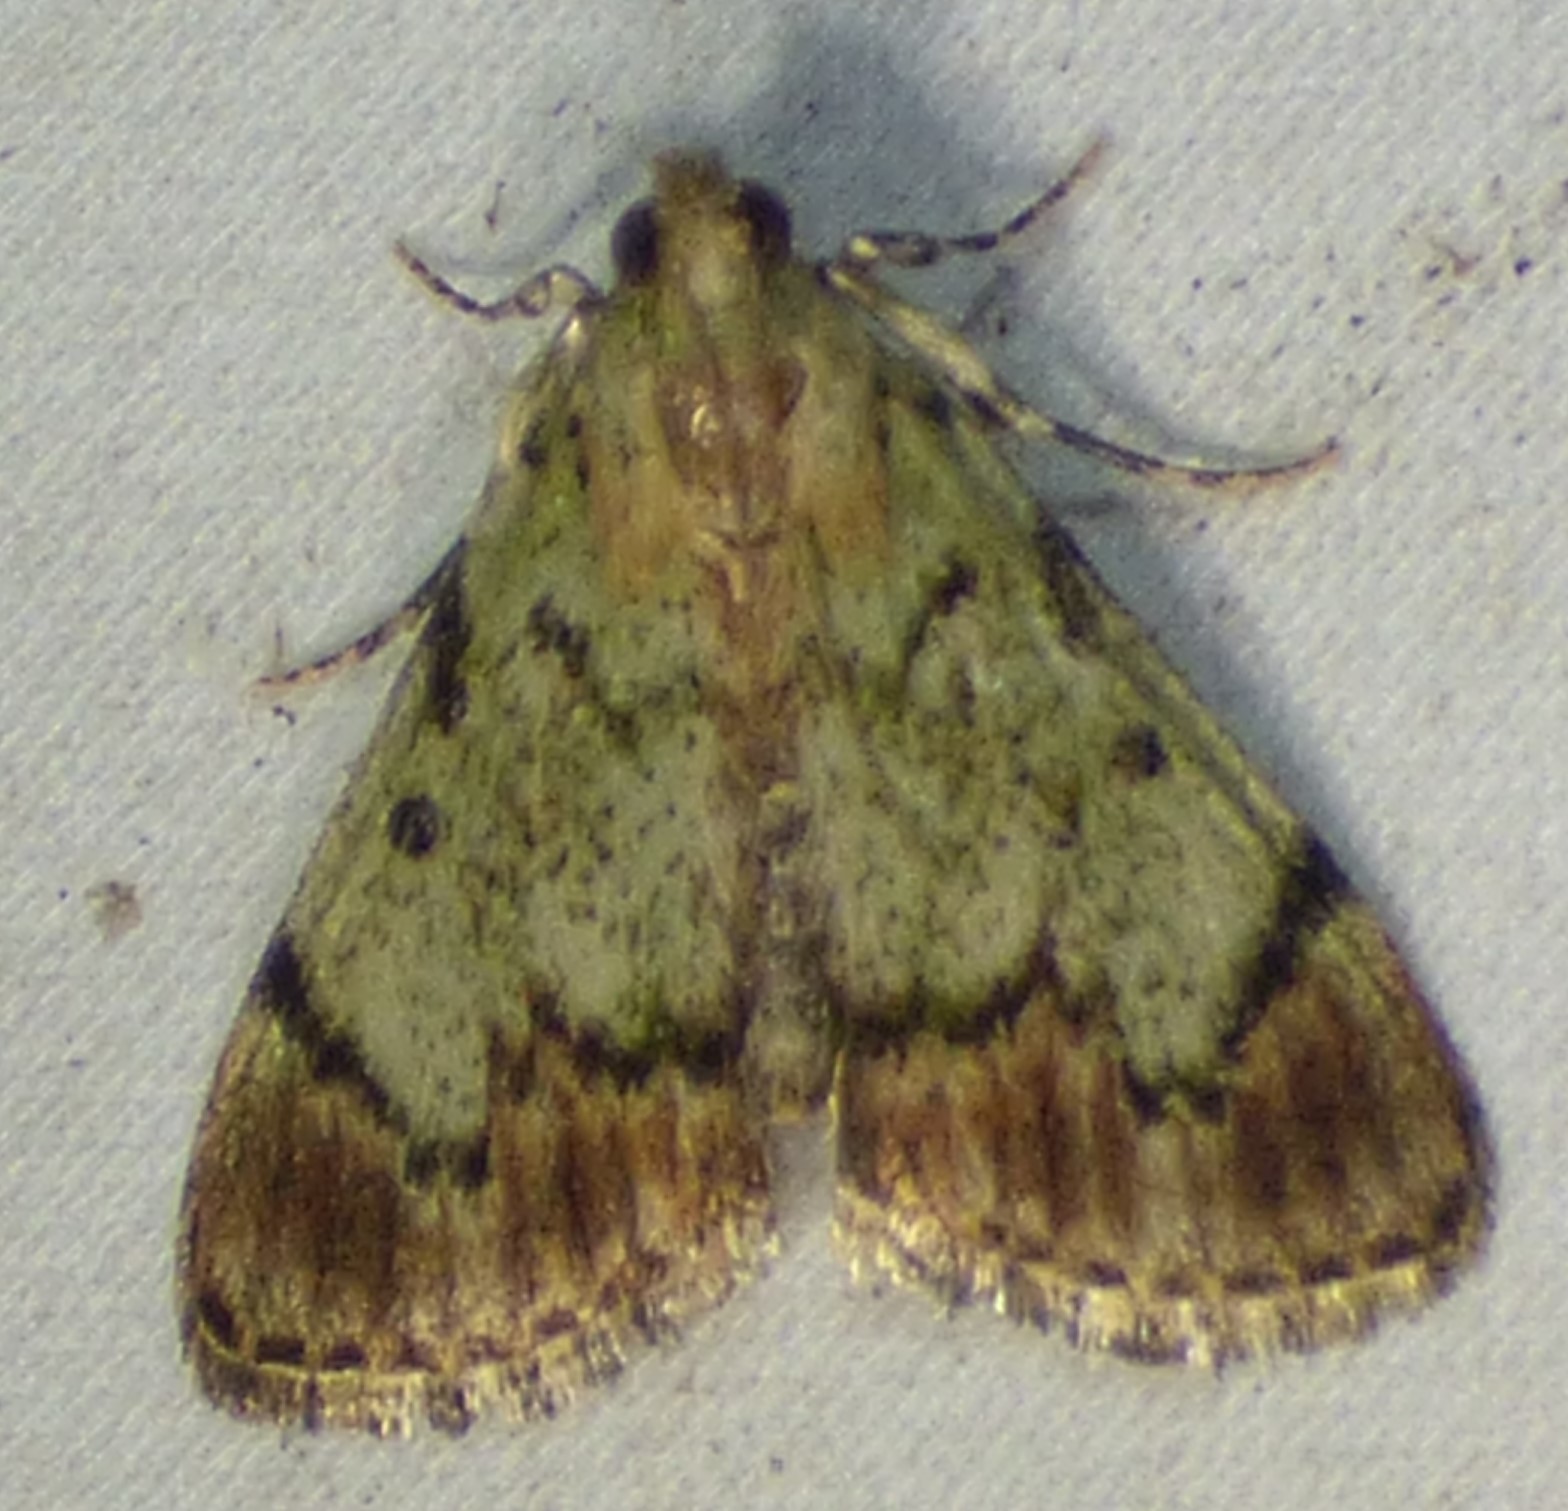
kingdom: Animalia
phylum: Arthropoda
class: Insecta
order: Lepidoptera
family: Pyralidae
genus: Epipaschia
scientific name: Epipaschia superatalis
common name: Dimorphic macalla moth
